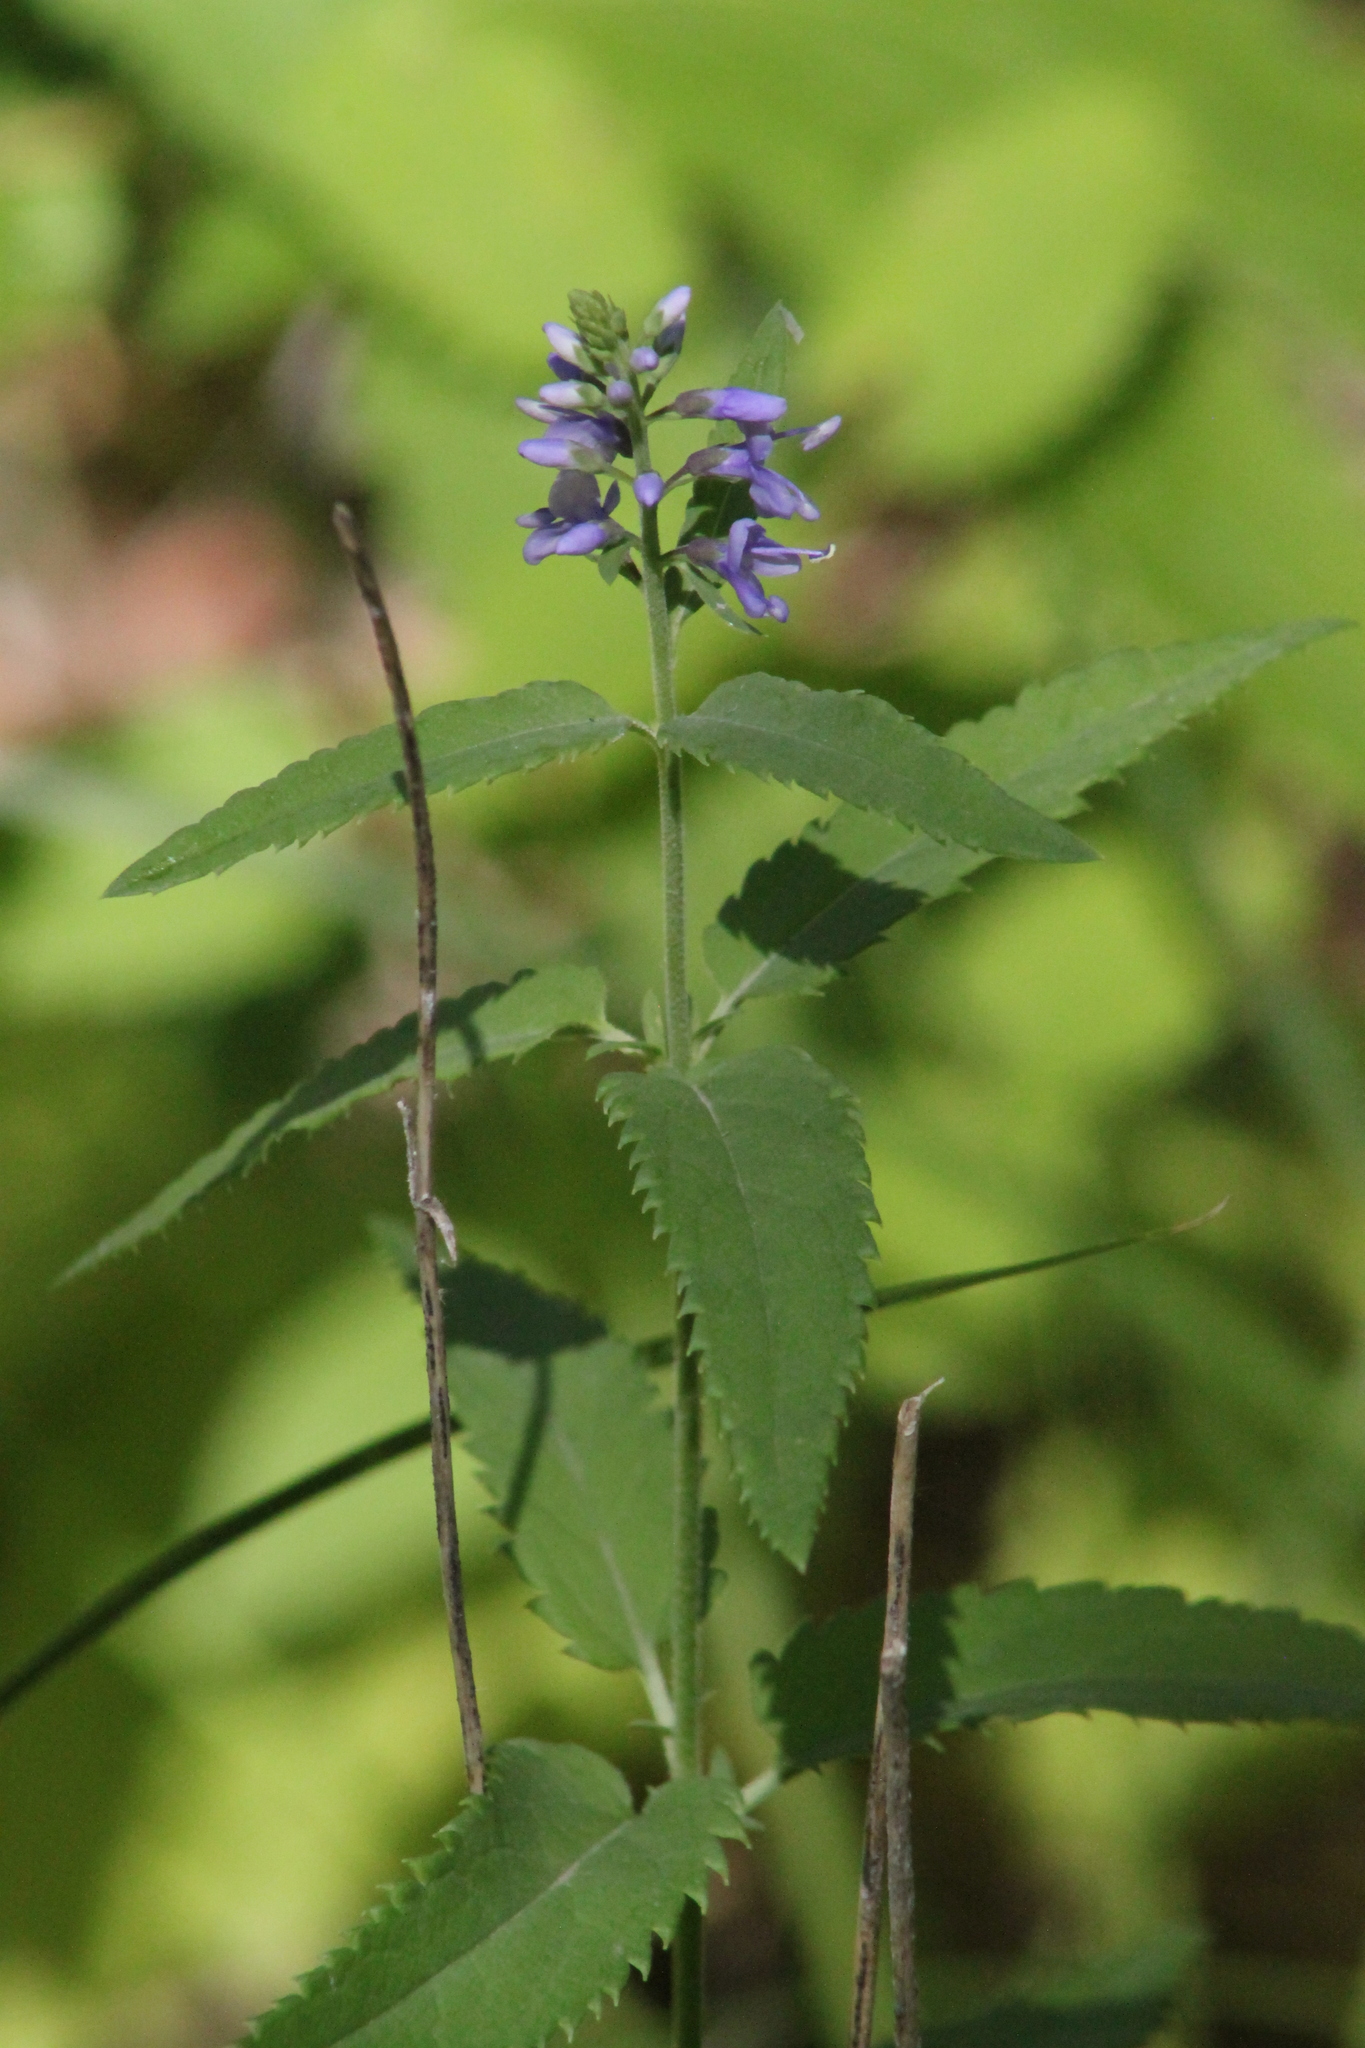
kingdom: Plantae
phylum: Tracheophyta
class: Magnoliopsida
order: Lamiales
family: Plantaginaceae
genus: Veronica
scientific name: Veronica longifolia
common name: Garden speedwell
